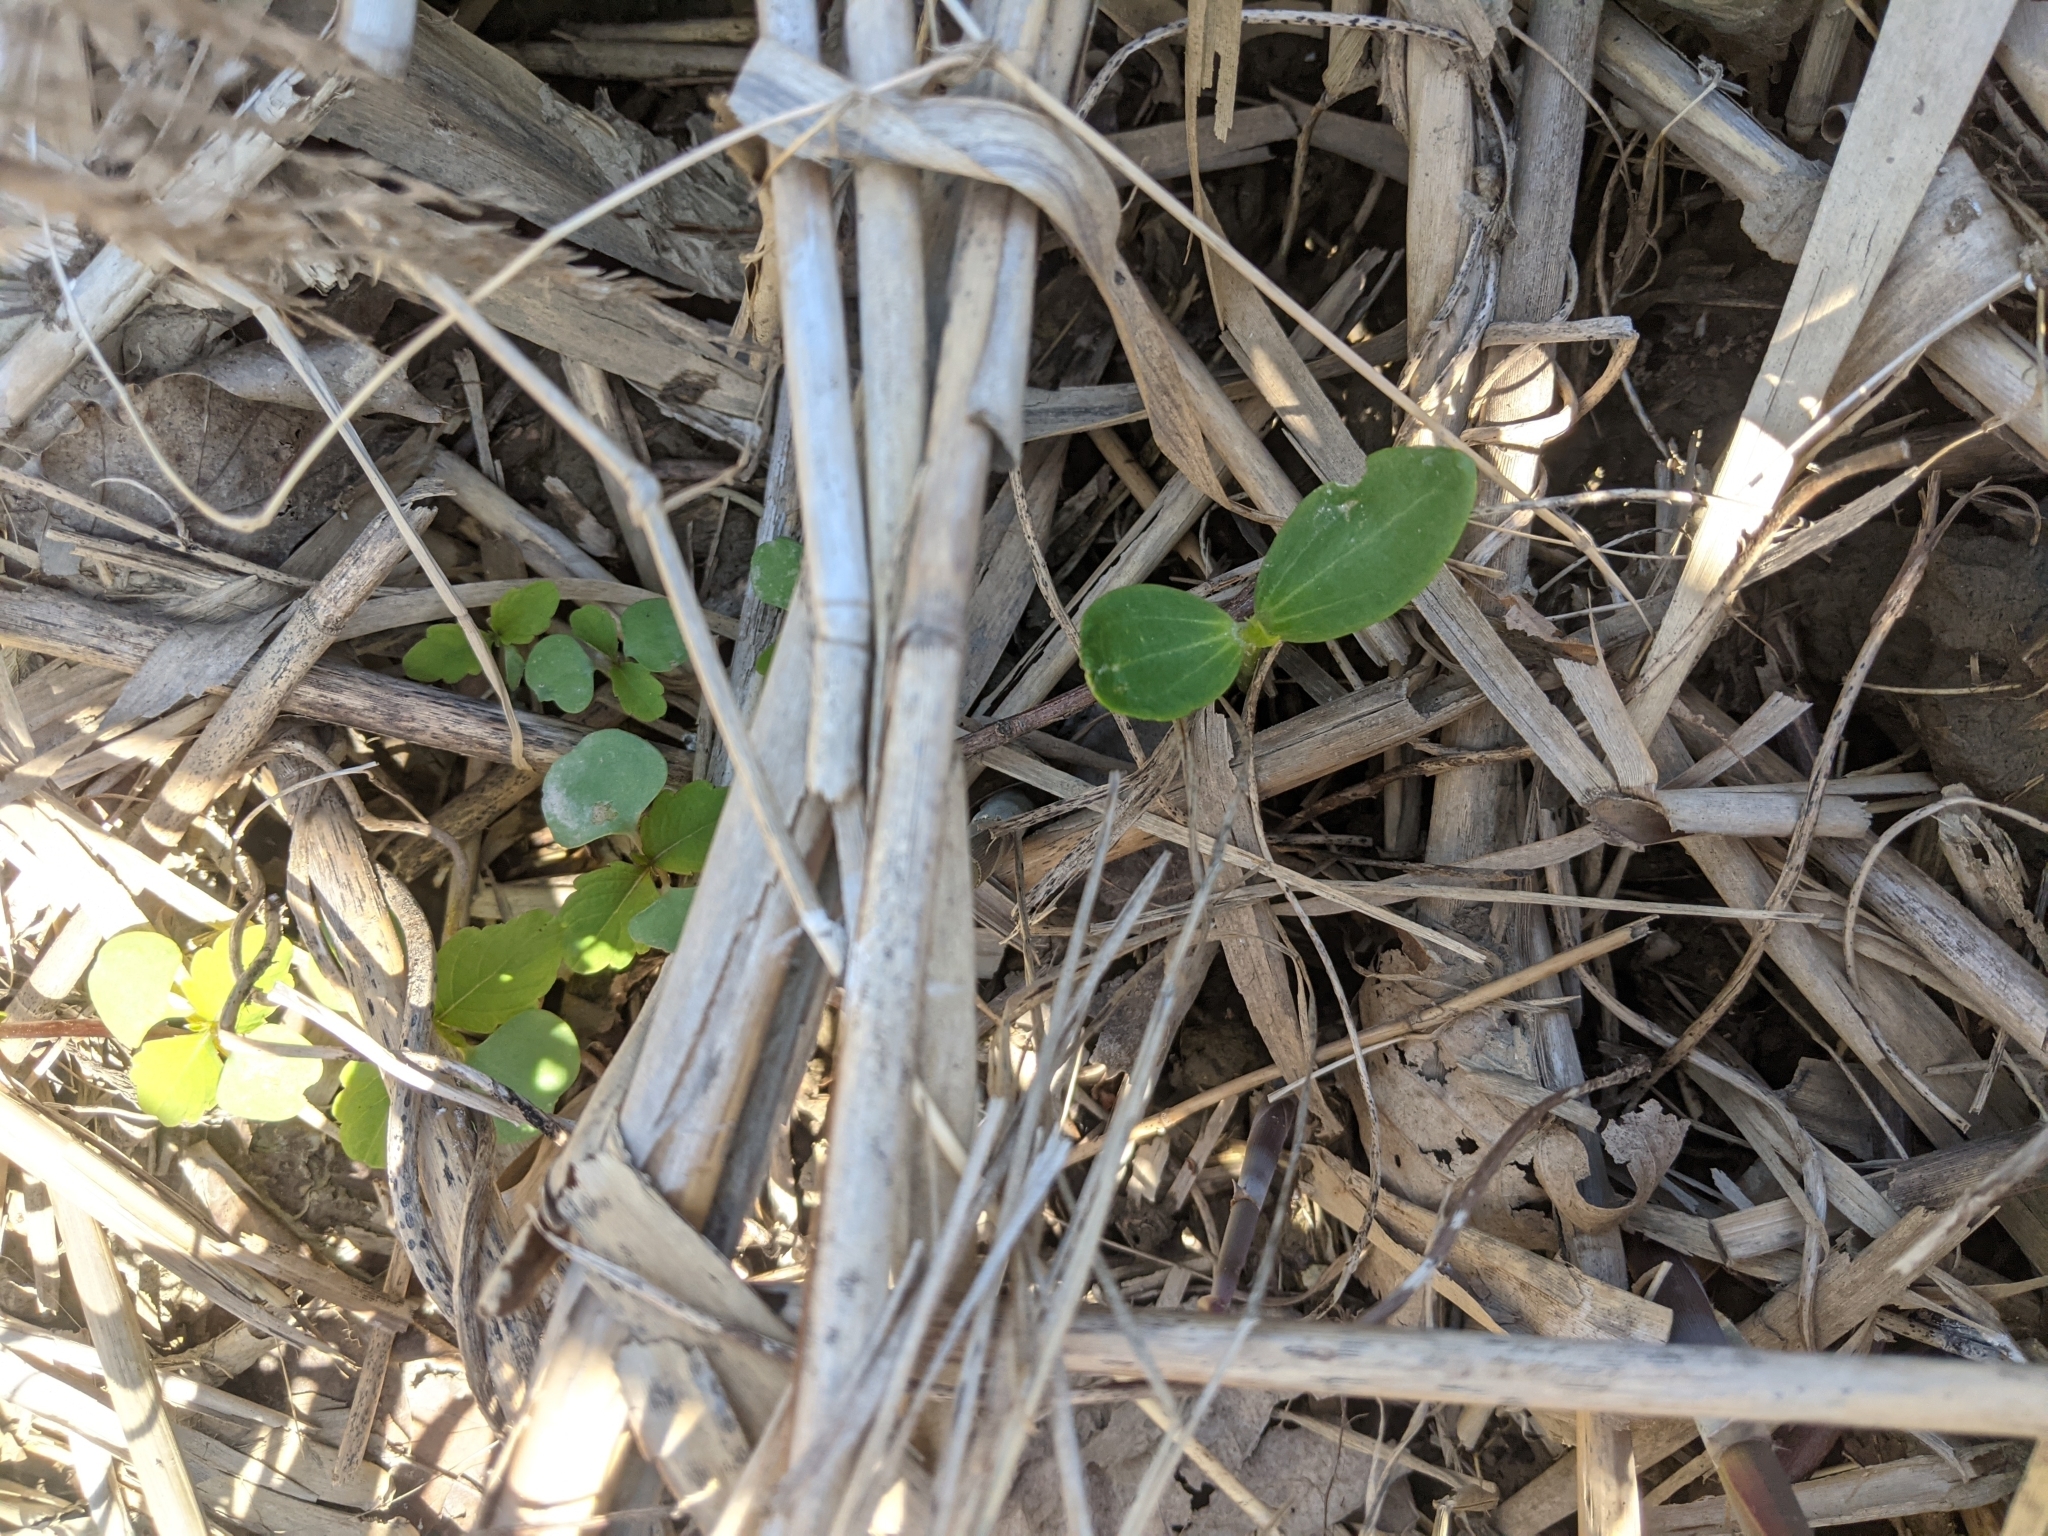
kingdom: Plantae
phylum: Tracheophyta
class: Magnoliopsida
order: Cucurbitales
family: Cucurbitaceae
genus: Echinocystis
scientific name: Echinocystis lobata
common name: Wild cucumber
